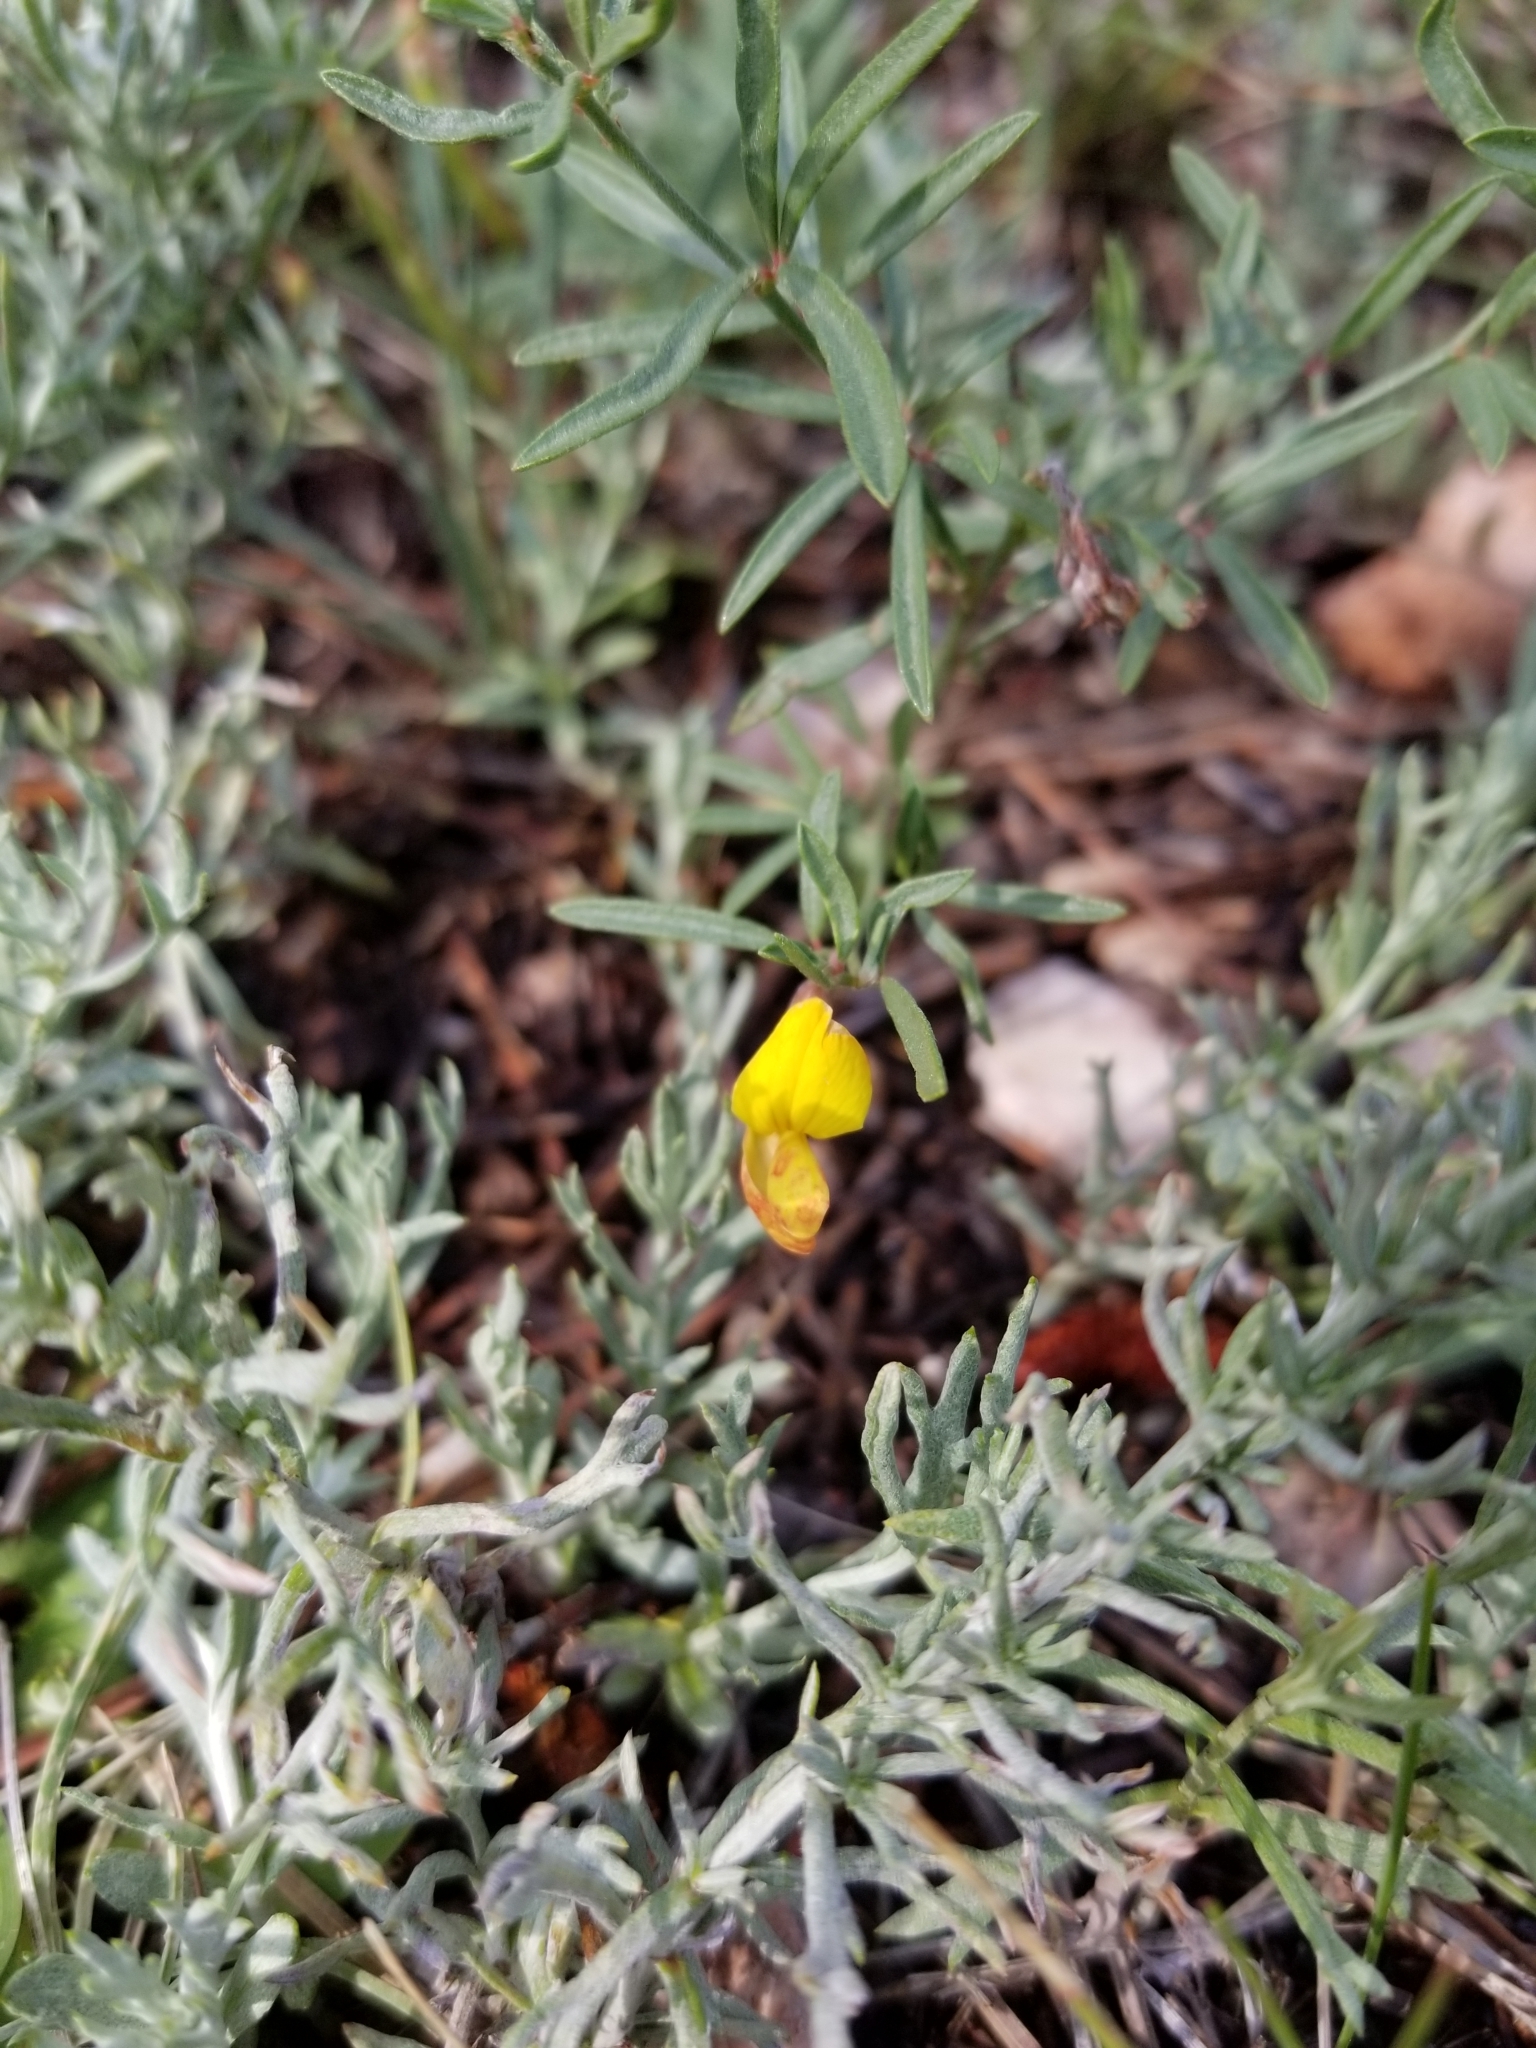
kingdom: Plantae
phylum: Tracheophyta
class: Magnoliopsida
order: Fabales
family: Fabaceae
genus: Acmispon
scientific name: Acmispon wrightii
